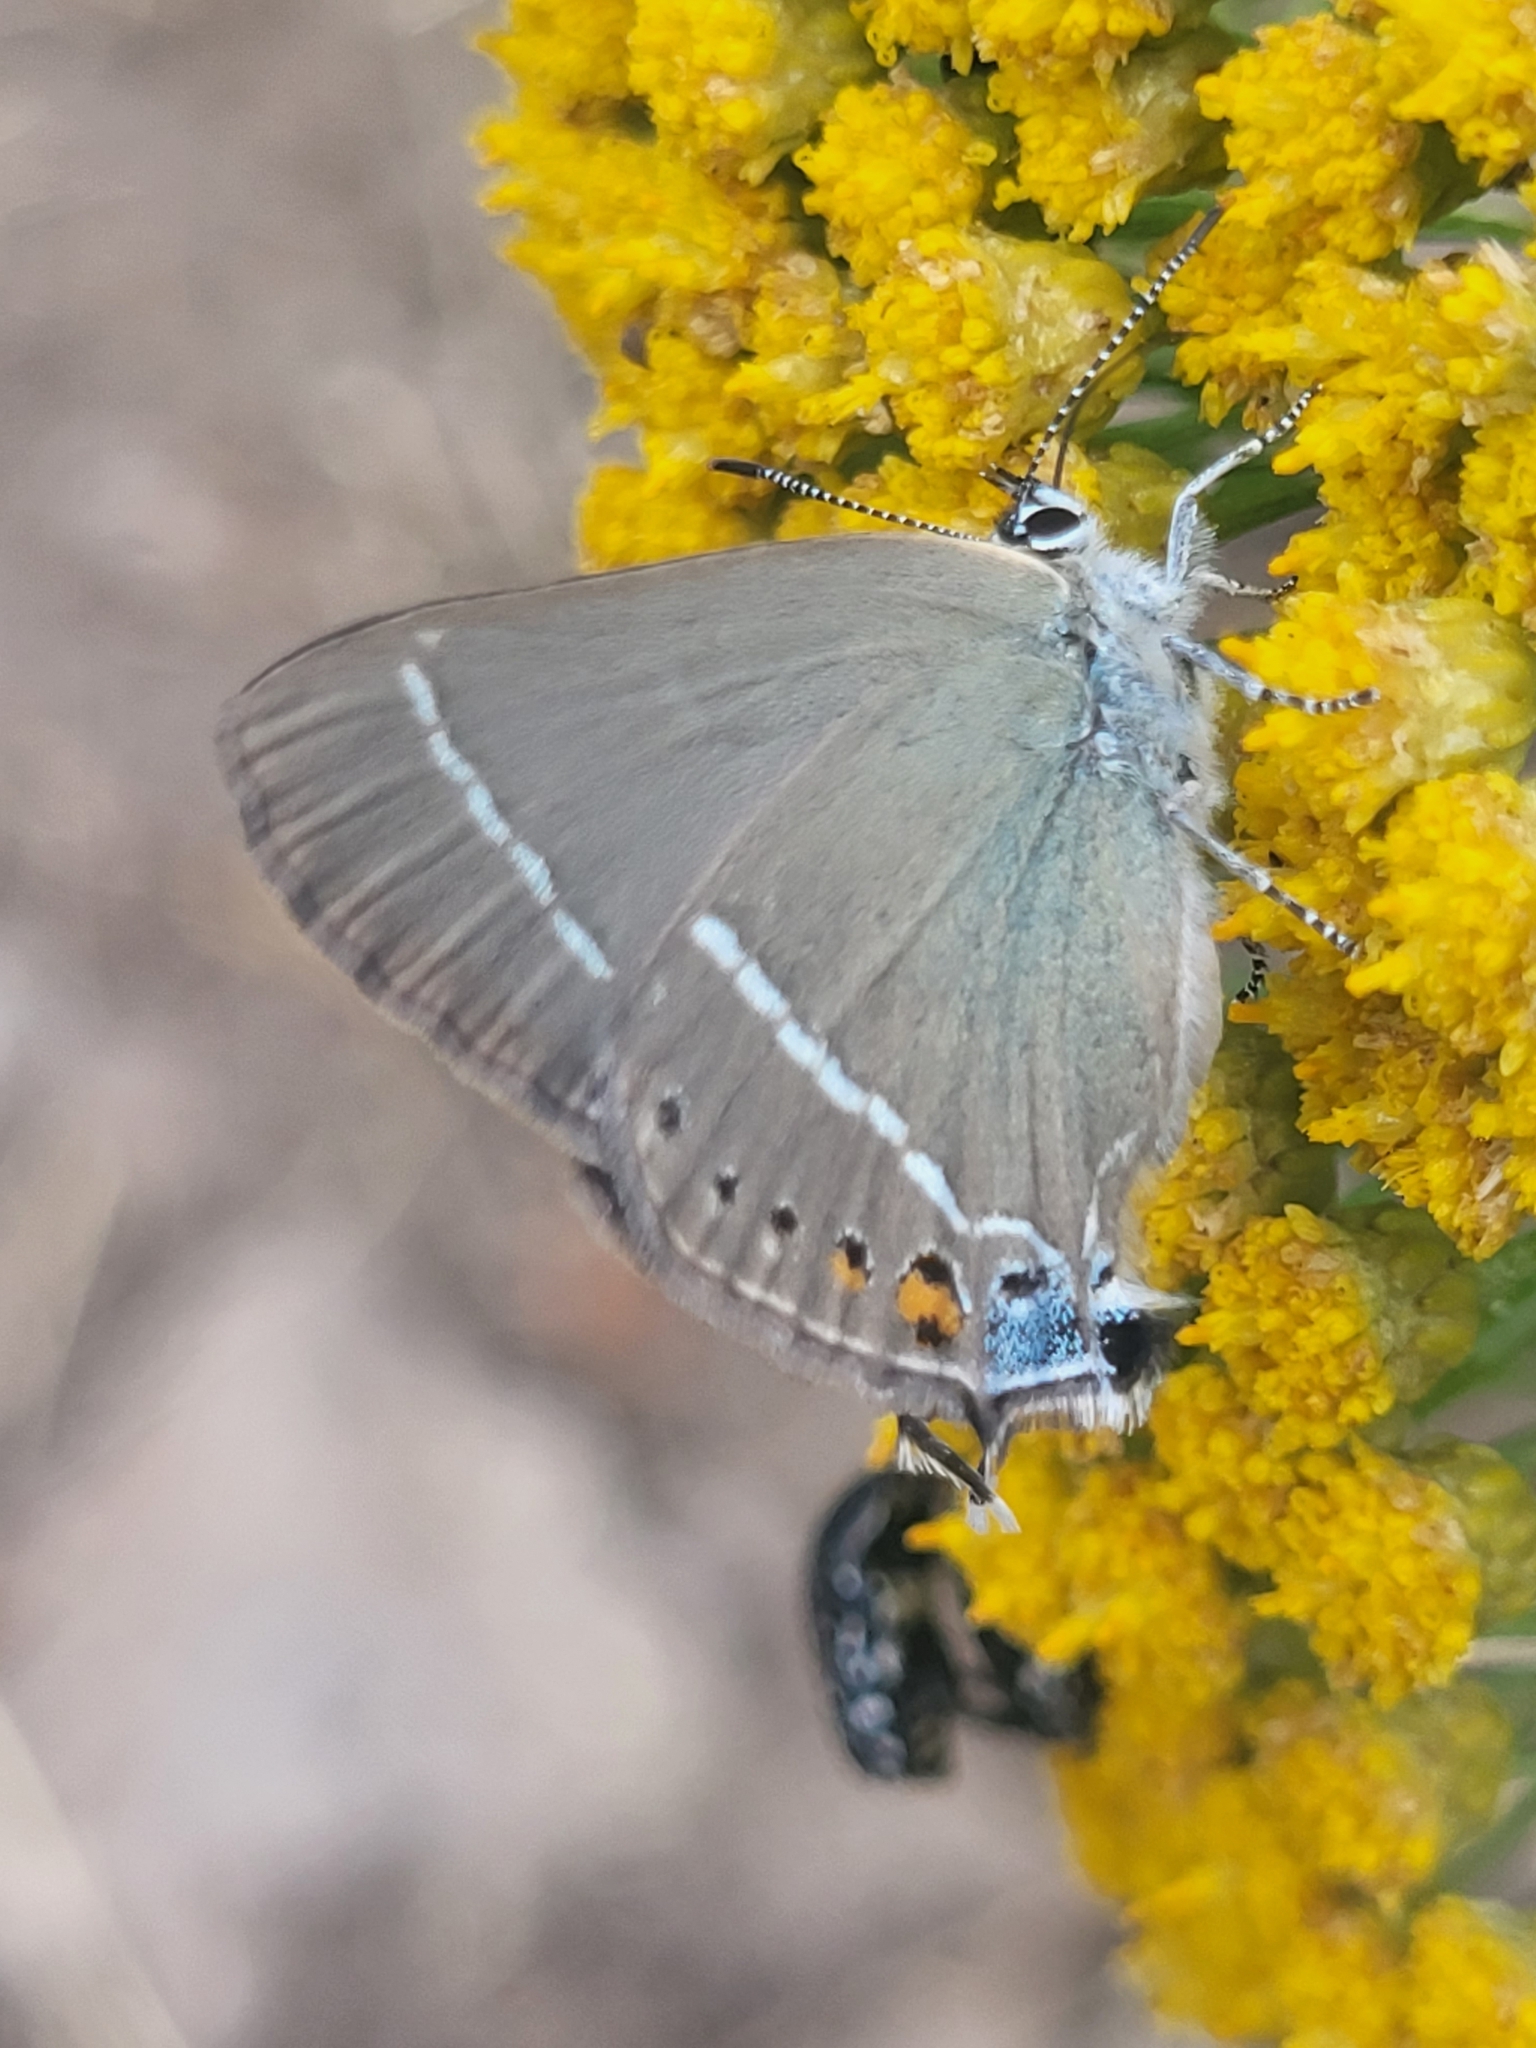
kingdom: Animalia
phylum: Arthropoda
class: Insecta
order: Lepidoptera
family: Lycaenidae
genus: Tuttiola
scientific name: Tuttiola spini
